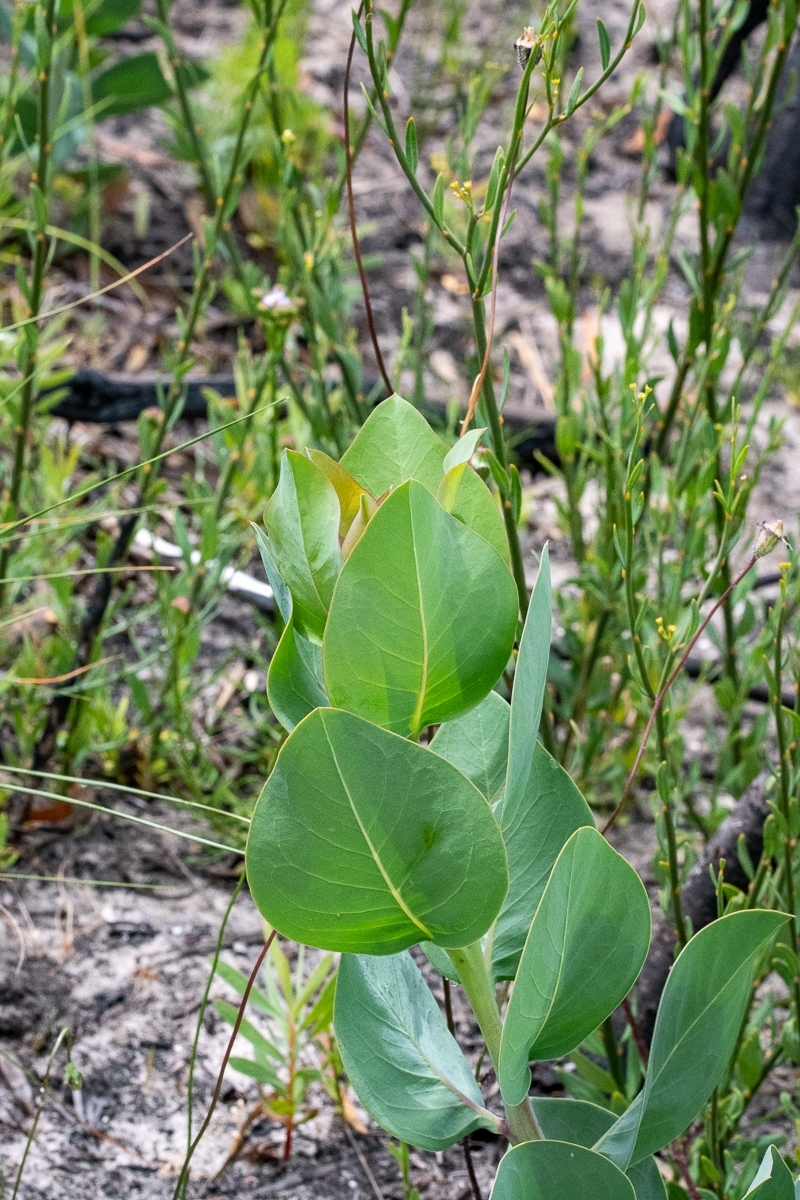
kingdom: Plantae
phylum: Tracheophyta
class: Magnoliopsida
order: Fabales
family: Fabaceae
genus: Rafnia
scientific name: Rafnia triflora
